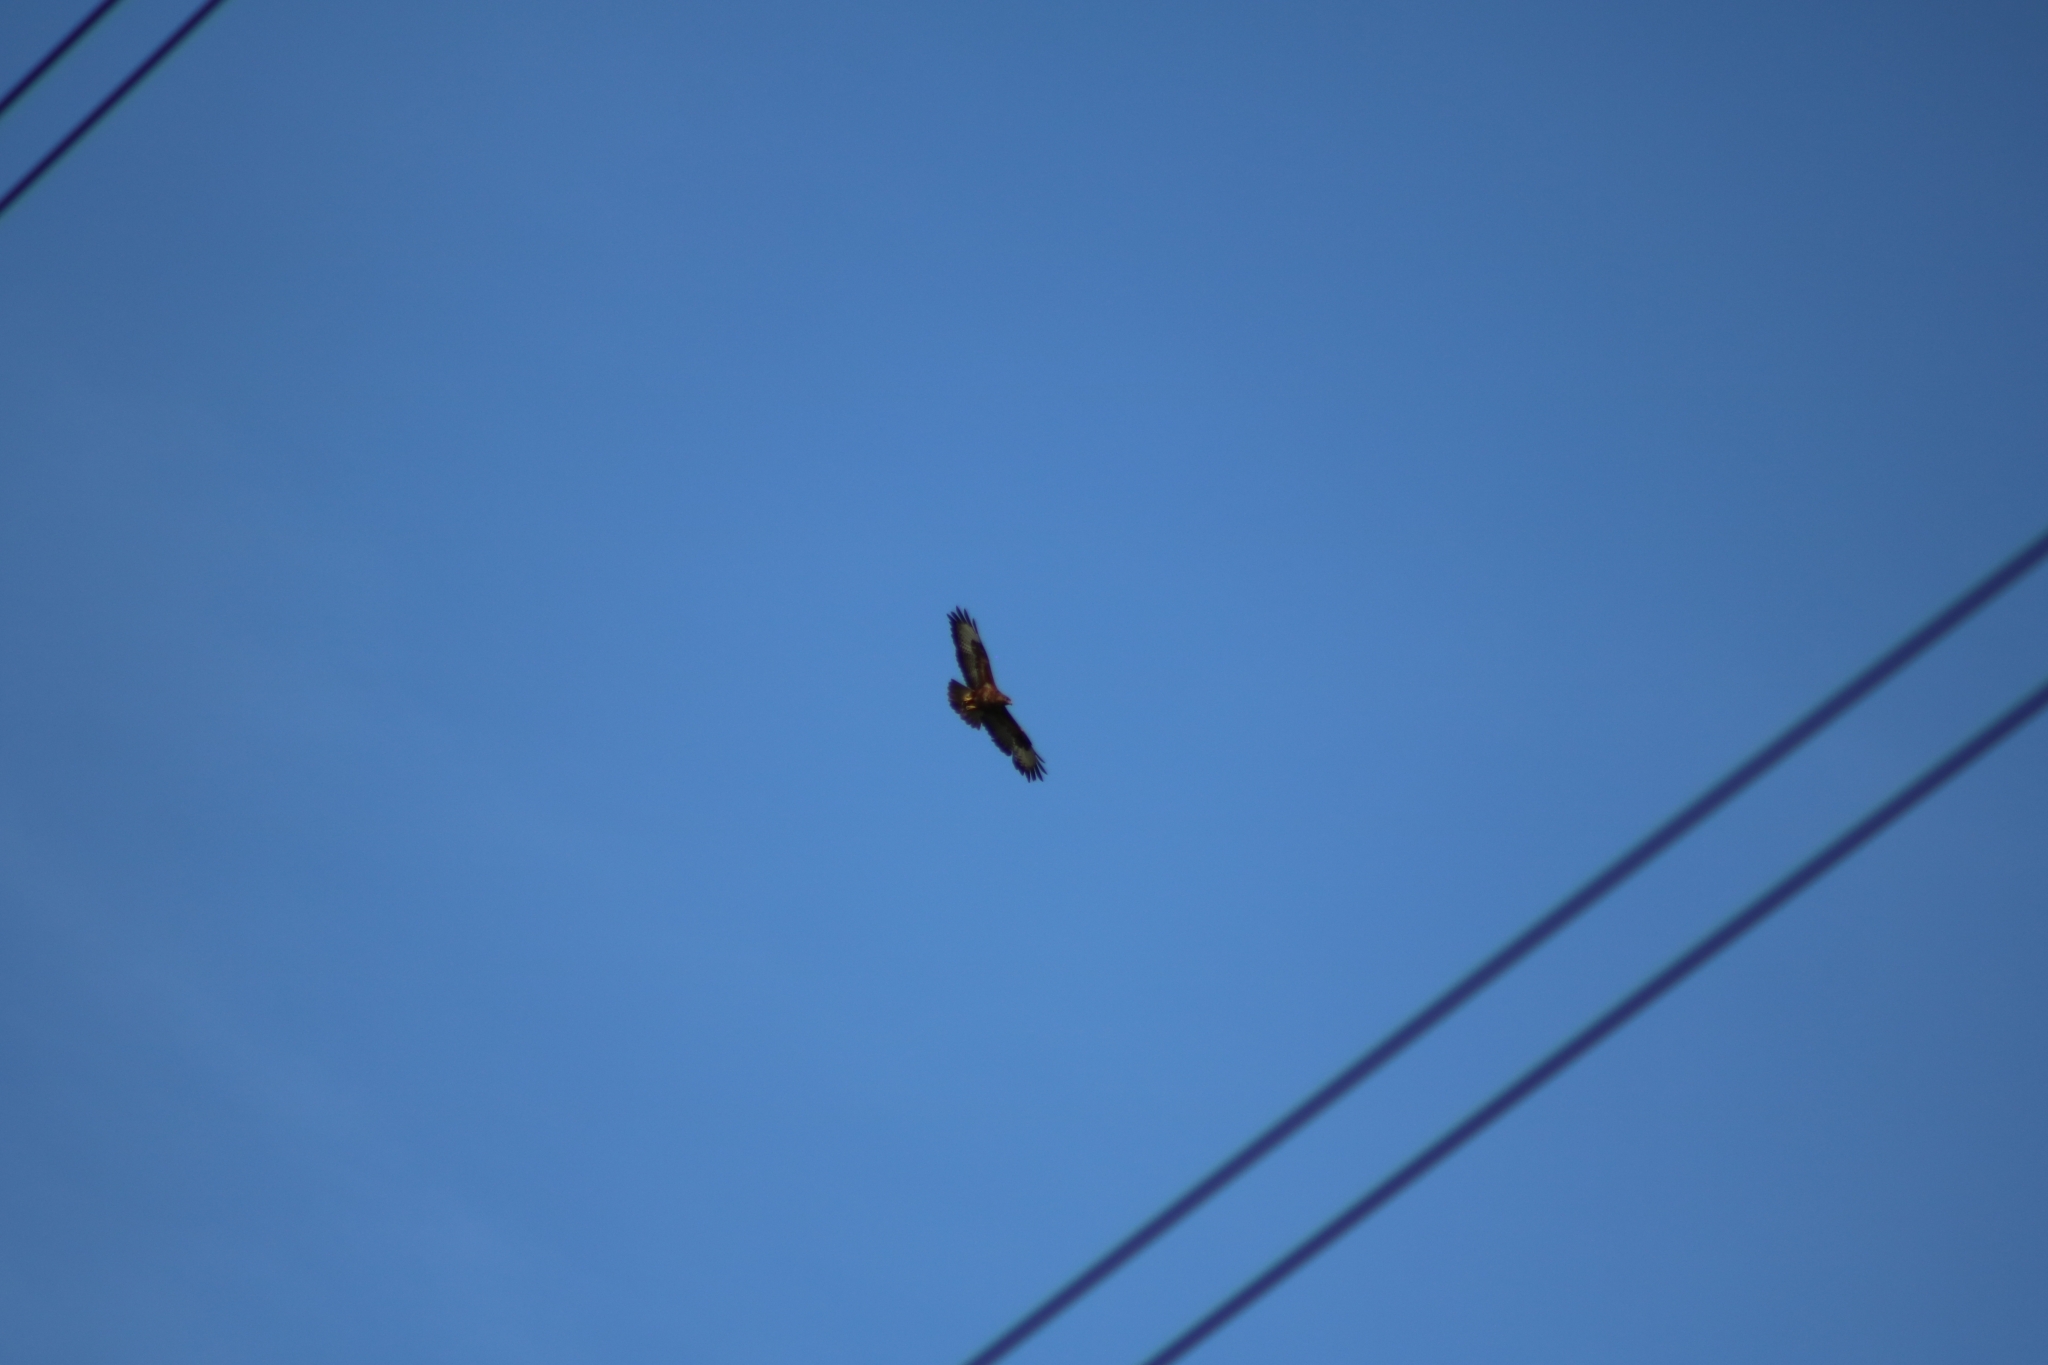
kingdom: Animalia
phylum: Chordata
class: Aves
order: Accipitriformes
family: Accipitridae
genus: Buteo
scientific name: Buteo buteo
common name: Common buzzard
